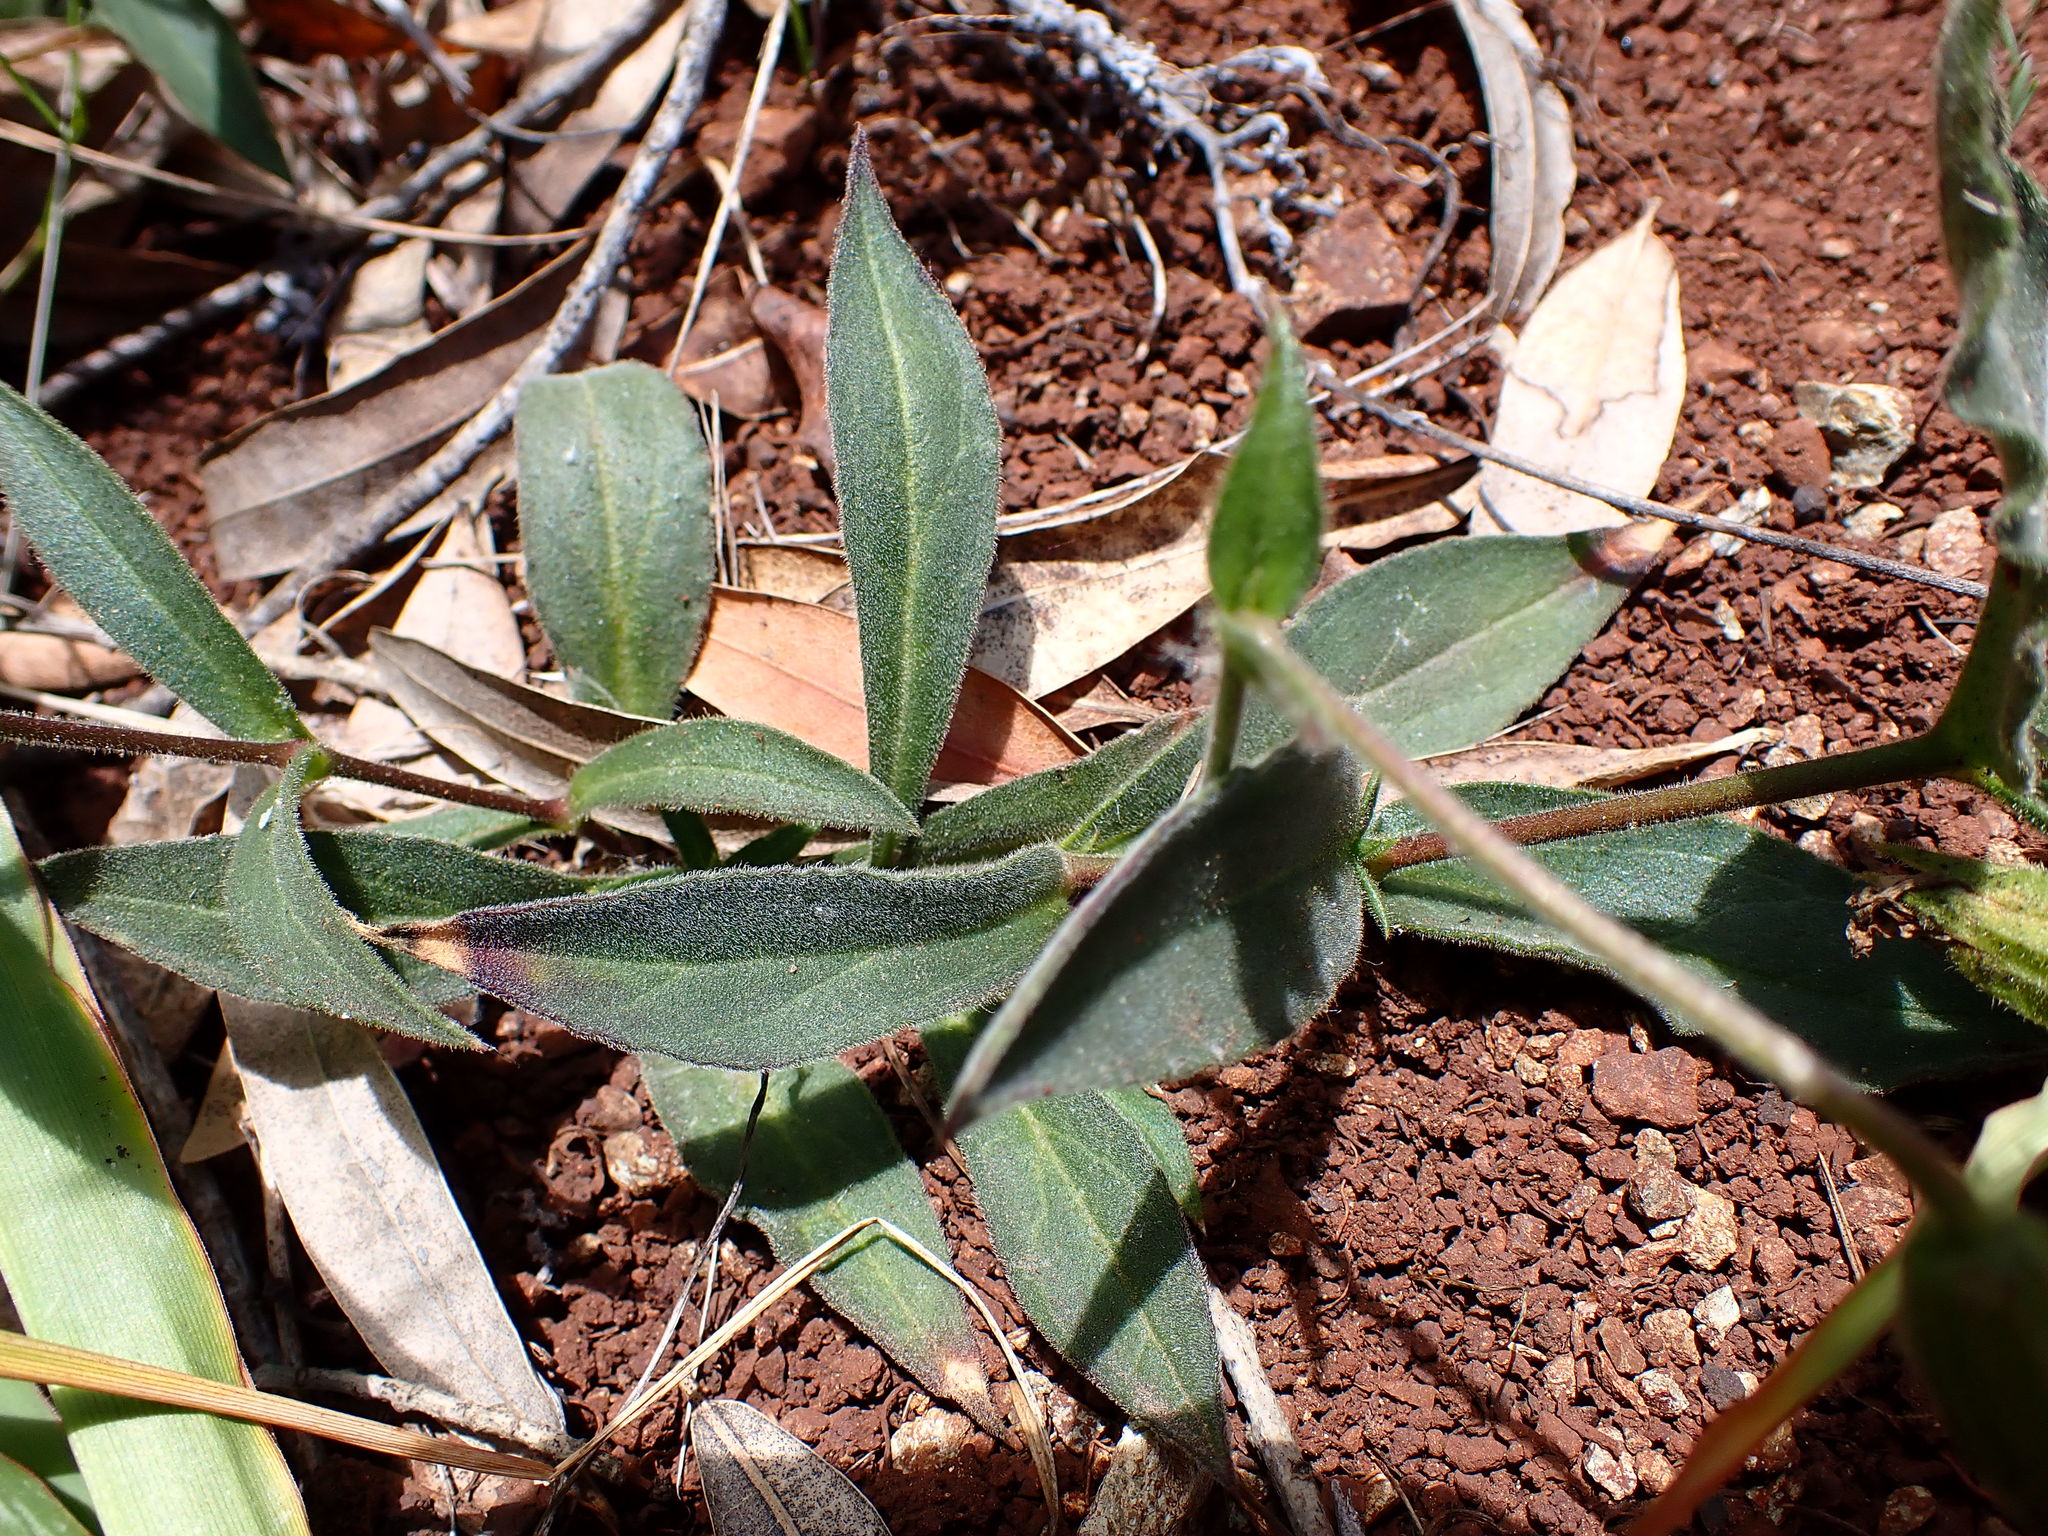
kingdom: Plantae
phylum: Tracheophyta
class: Magnoliopsida
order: Caryophyllales
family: Caryophyllaceae
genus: Silene
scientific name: Silene laciniata
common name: Indian-pink
